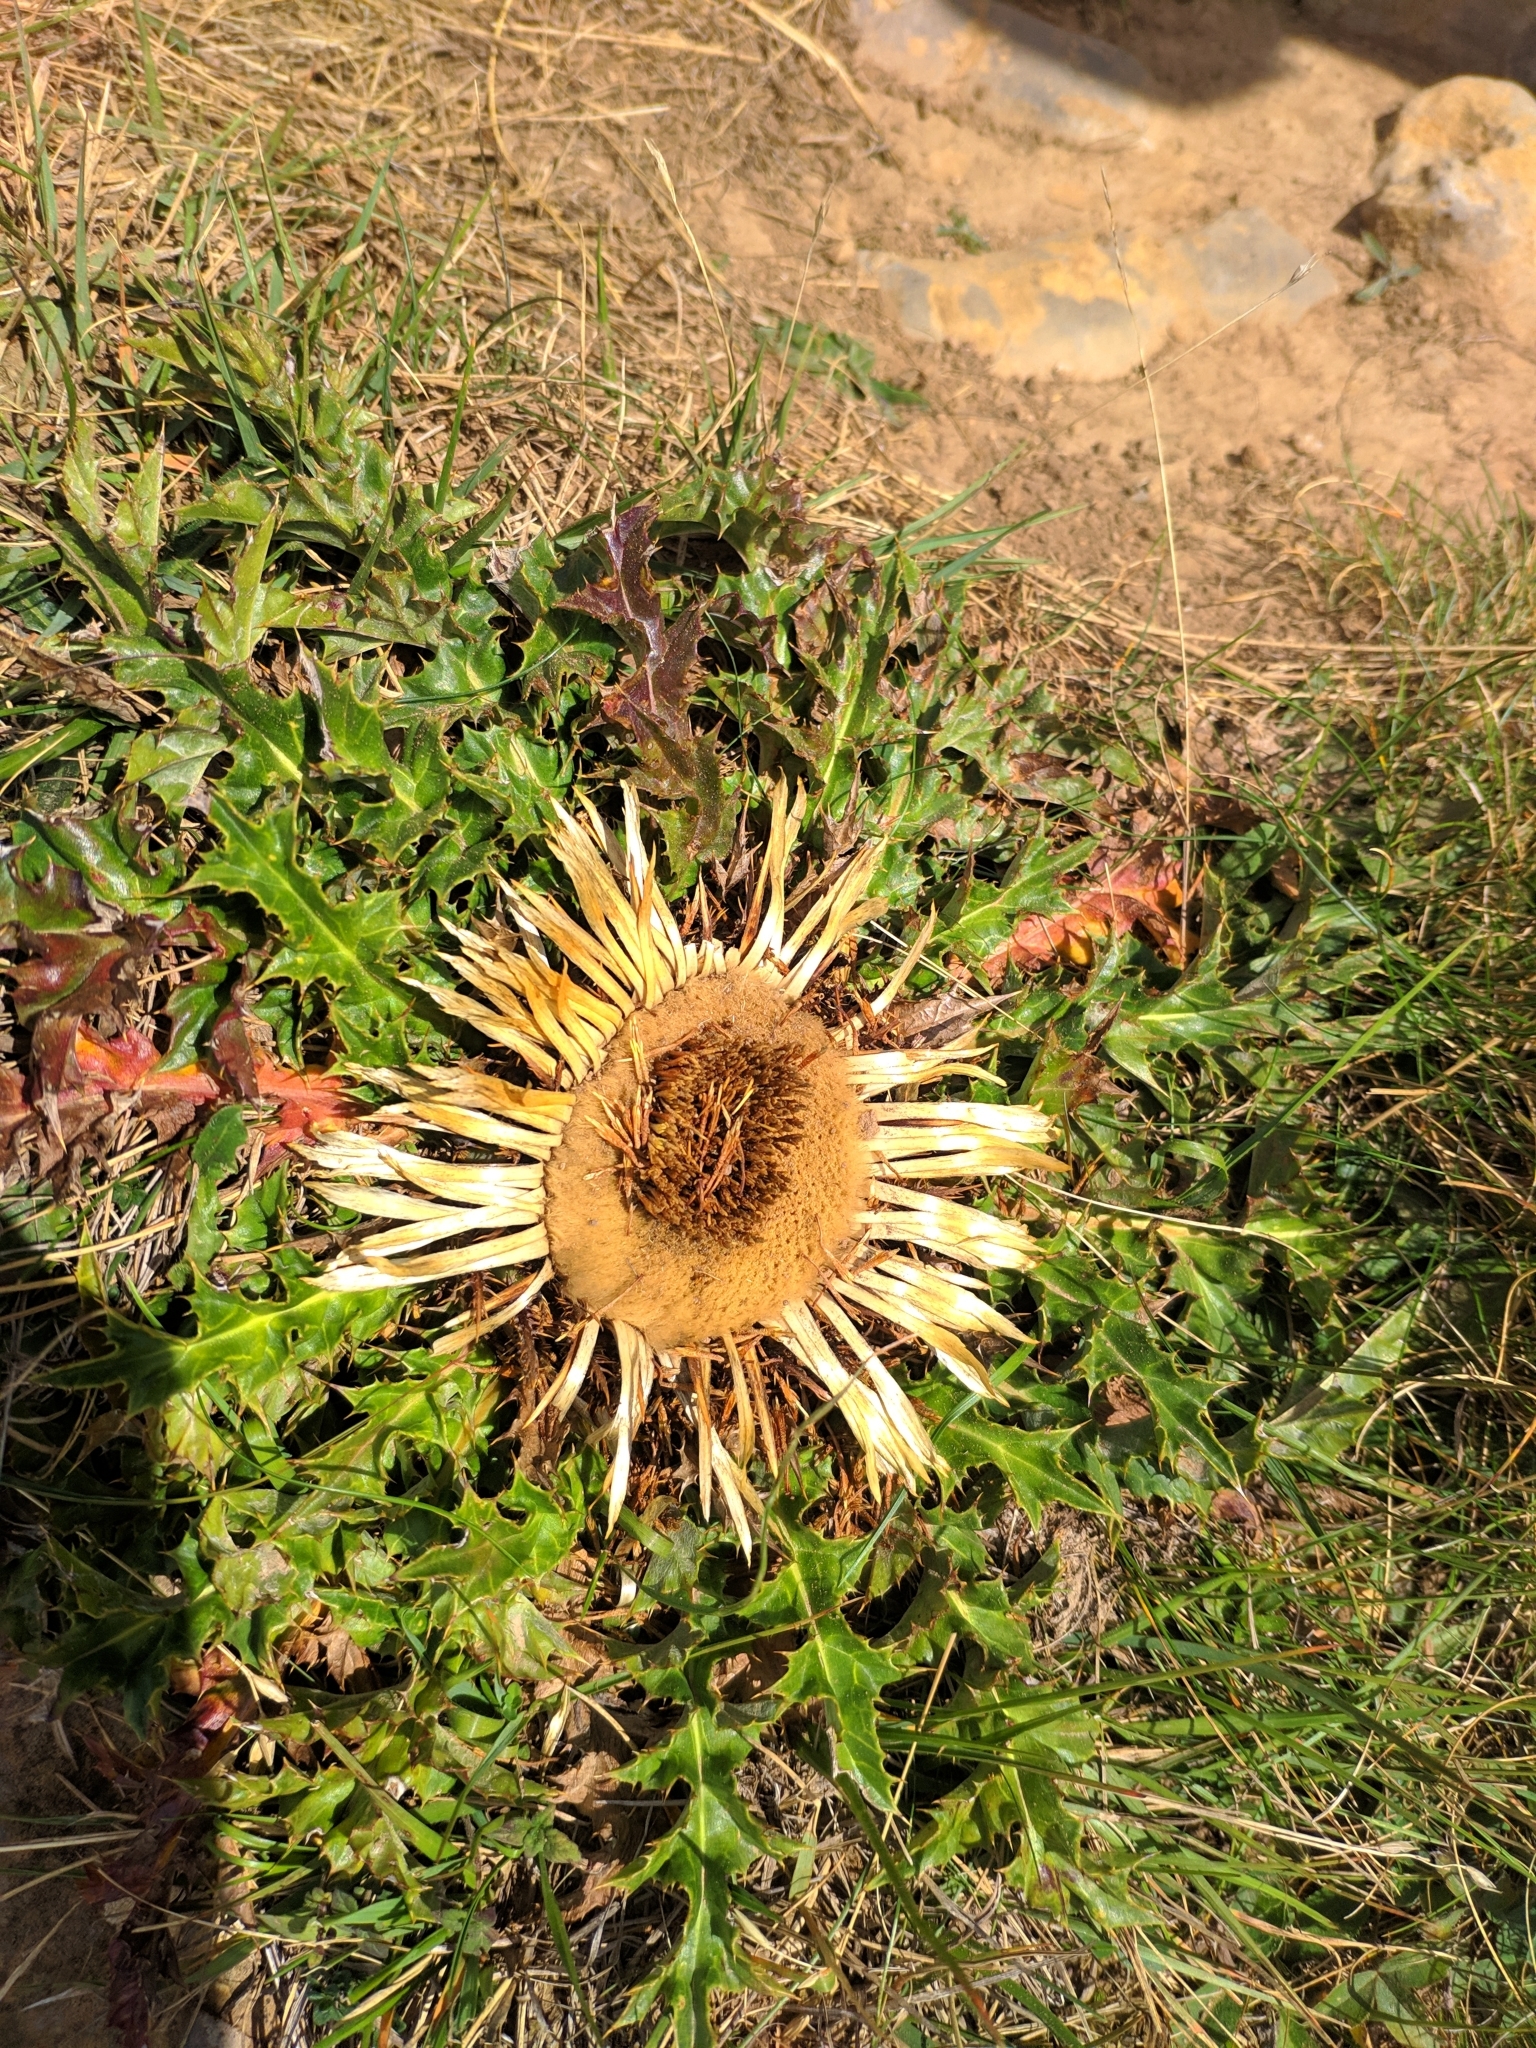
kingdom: Plantae
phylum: Tracheophyta
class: Magnoliopsida
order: Asterales
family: Asteraceae
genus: Carlina
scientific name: Carlina acanthifolia
